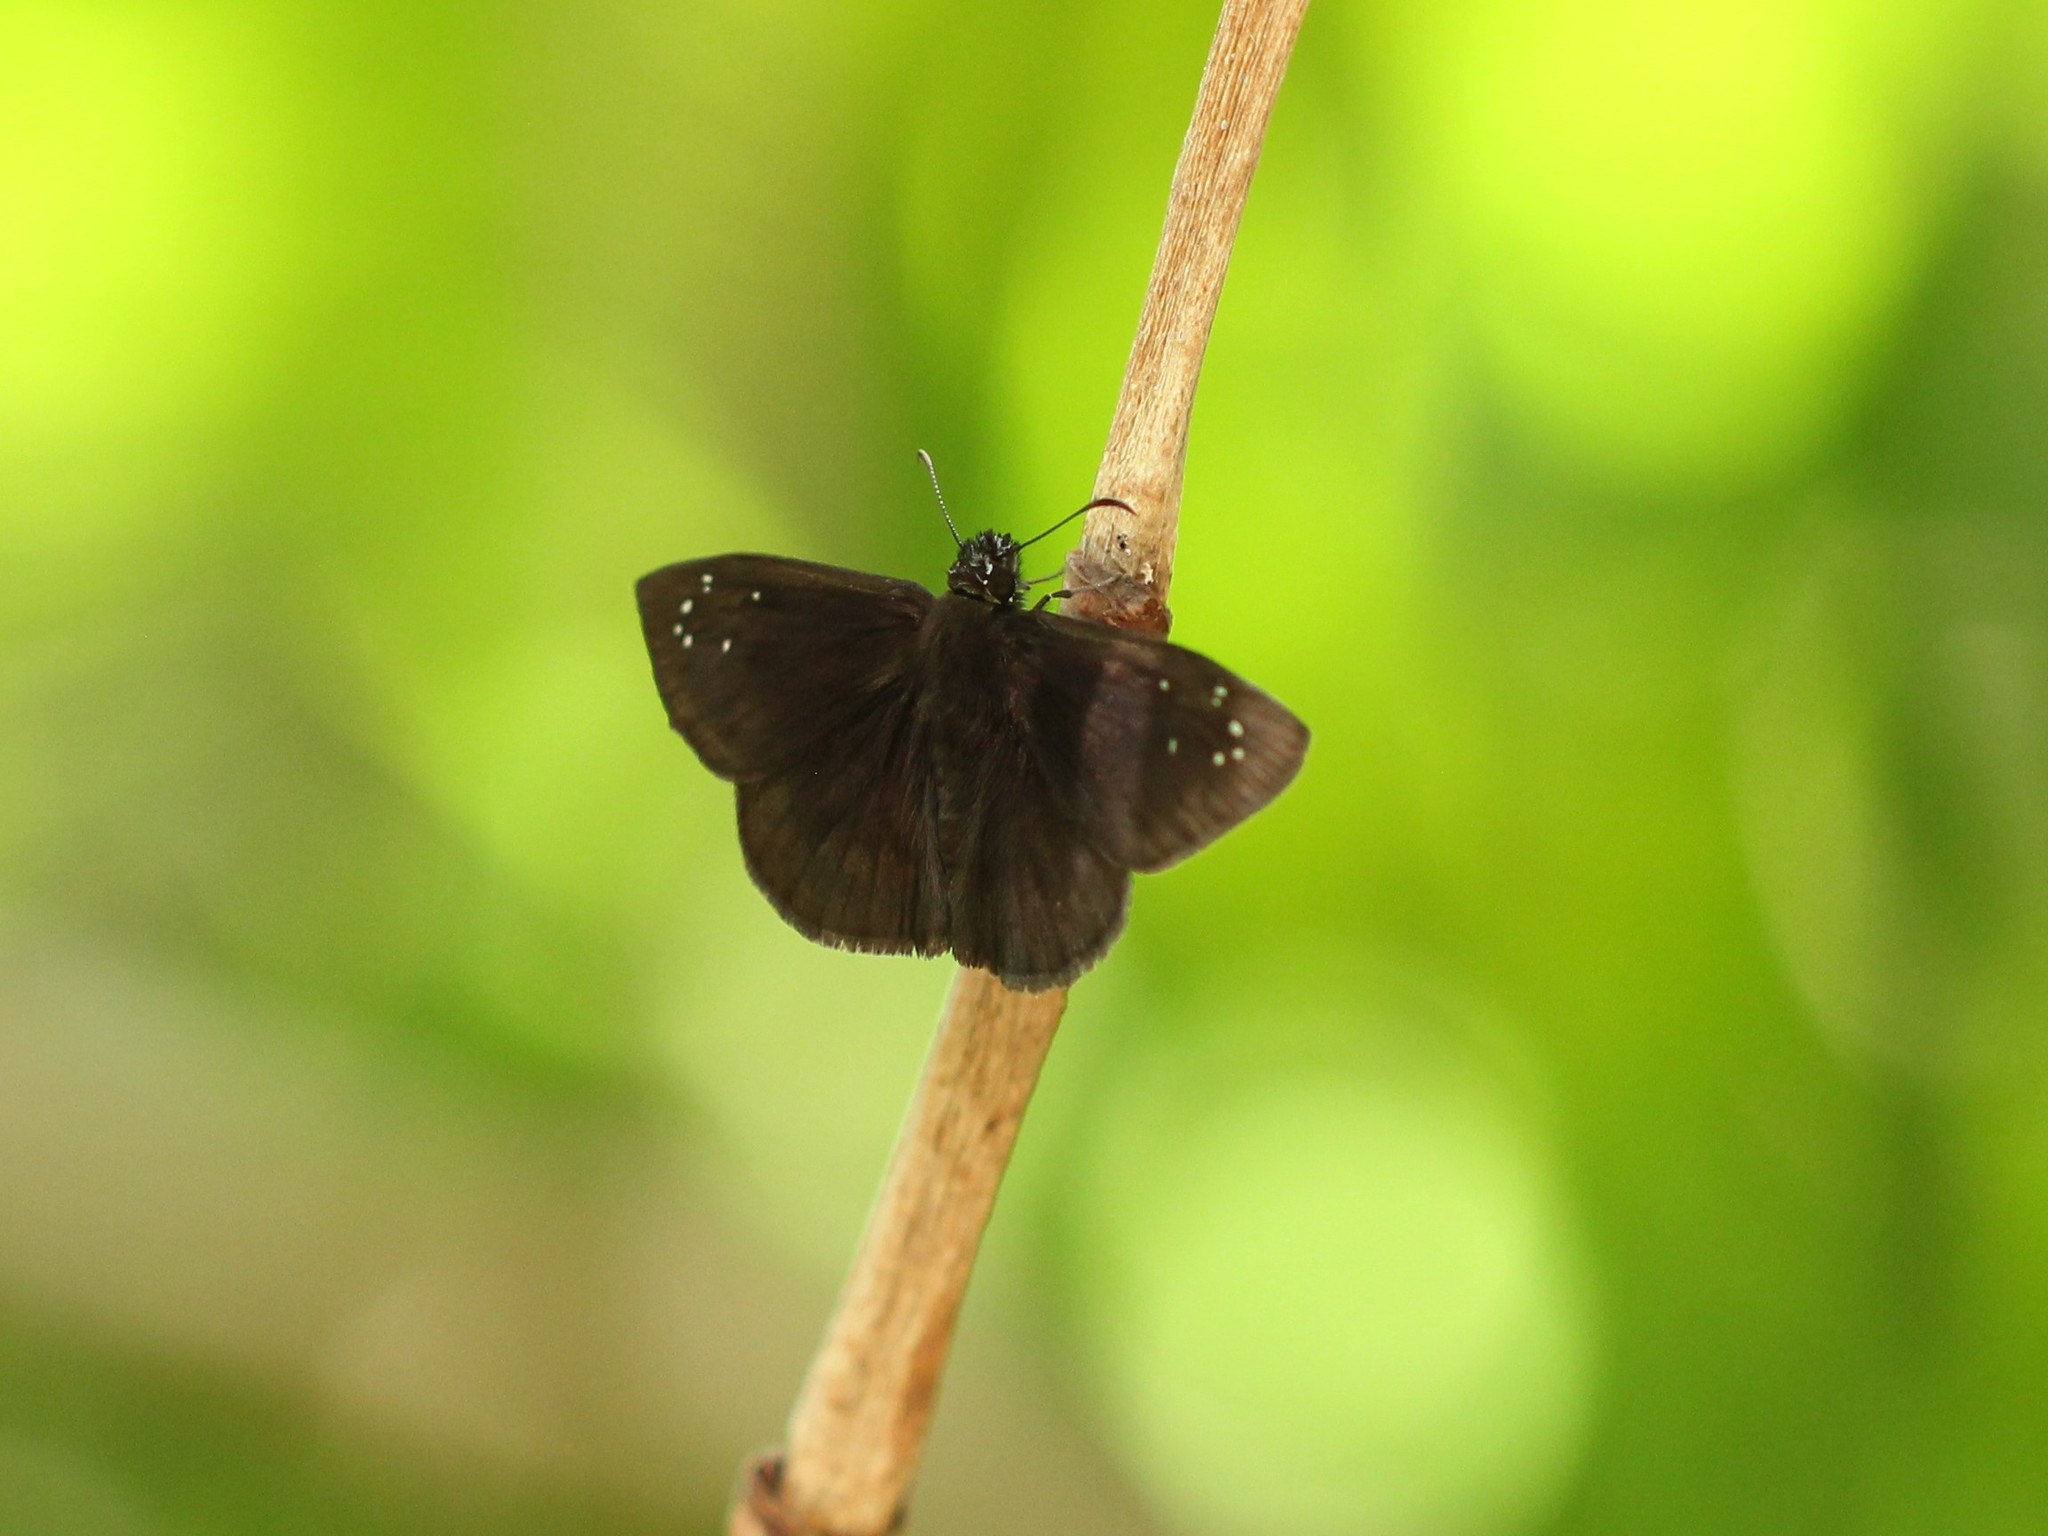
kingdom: Animalia
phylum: Arthropoda
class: Insecta
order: Lepidoptera
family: Hesperiidae
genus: Ephyriades
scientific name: Ephyriades brunnea
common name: Florida duskywing
